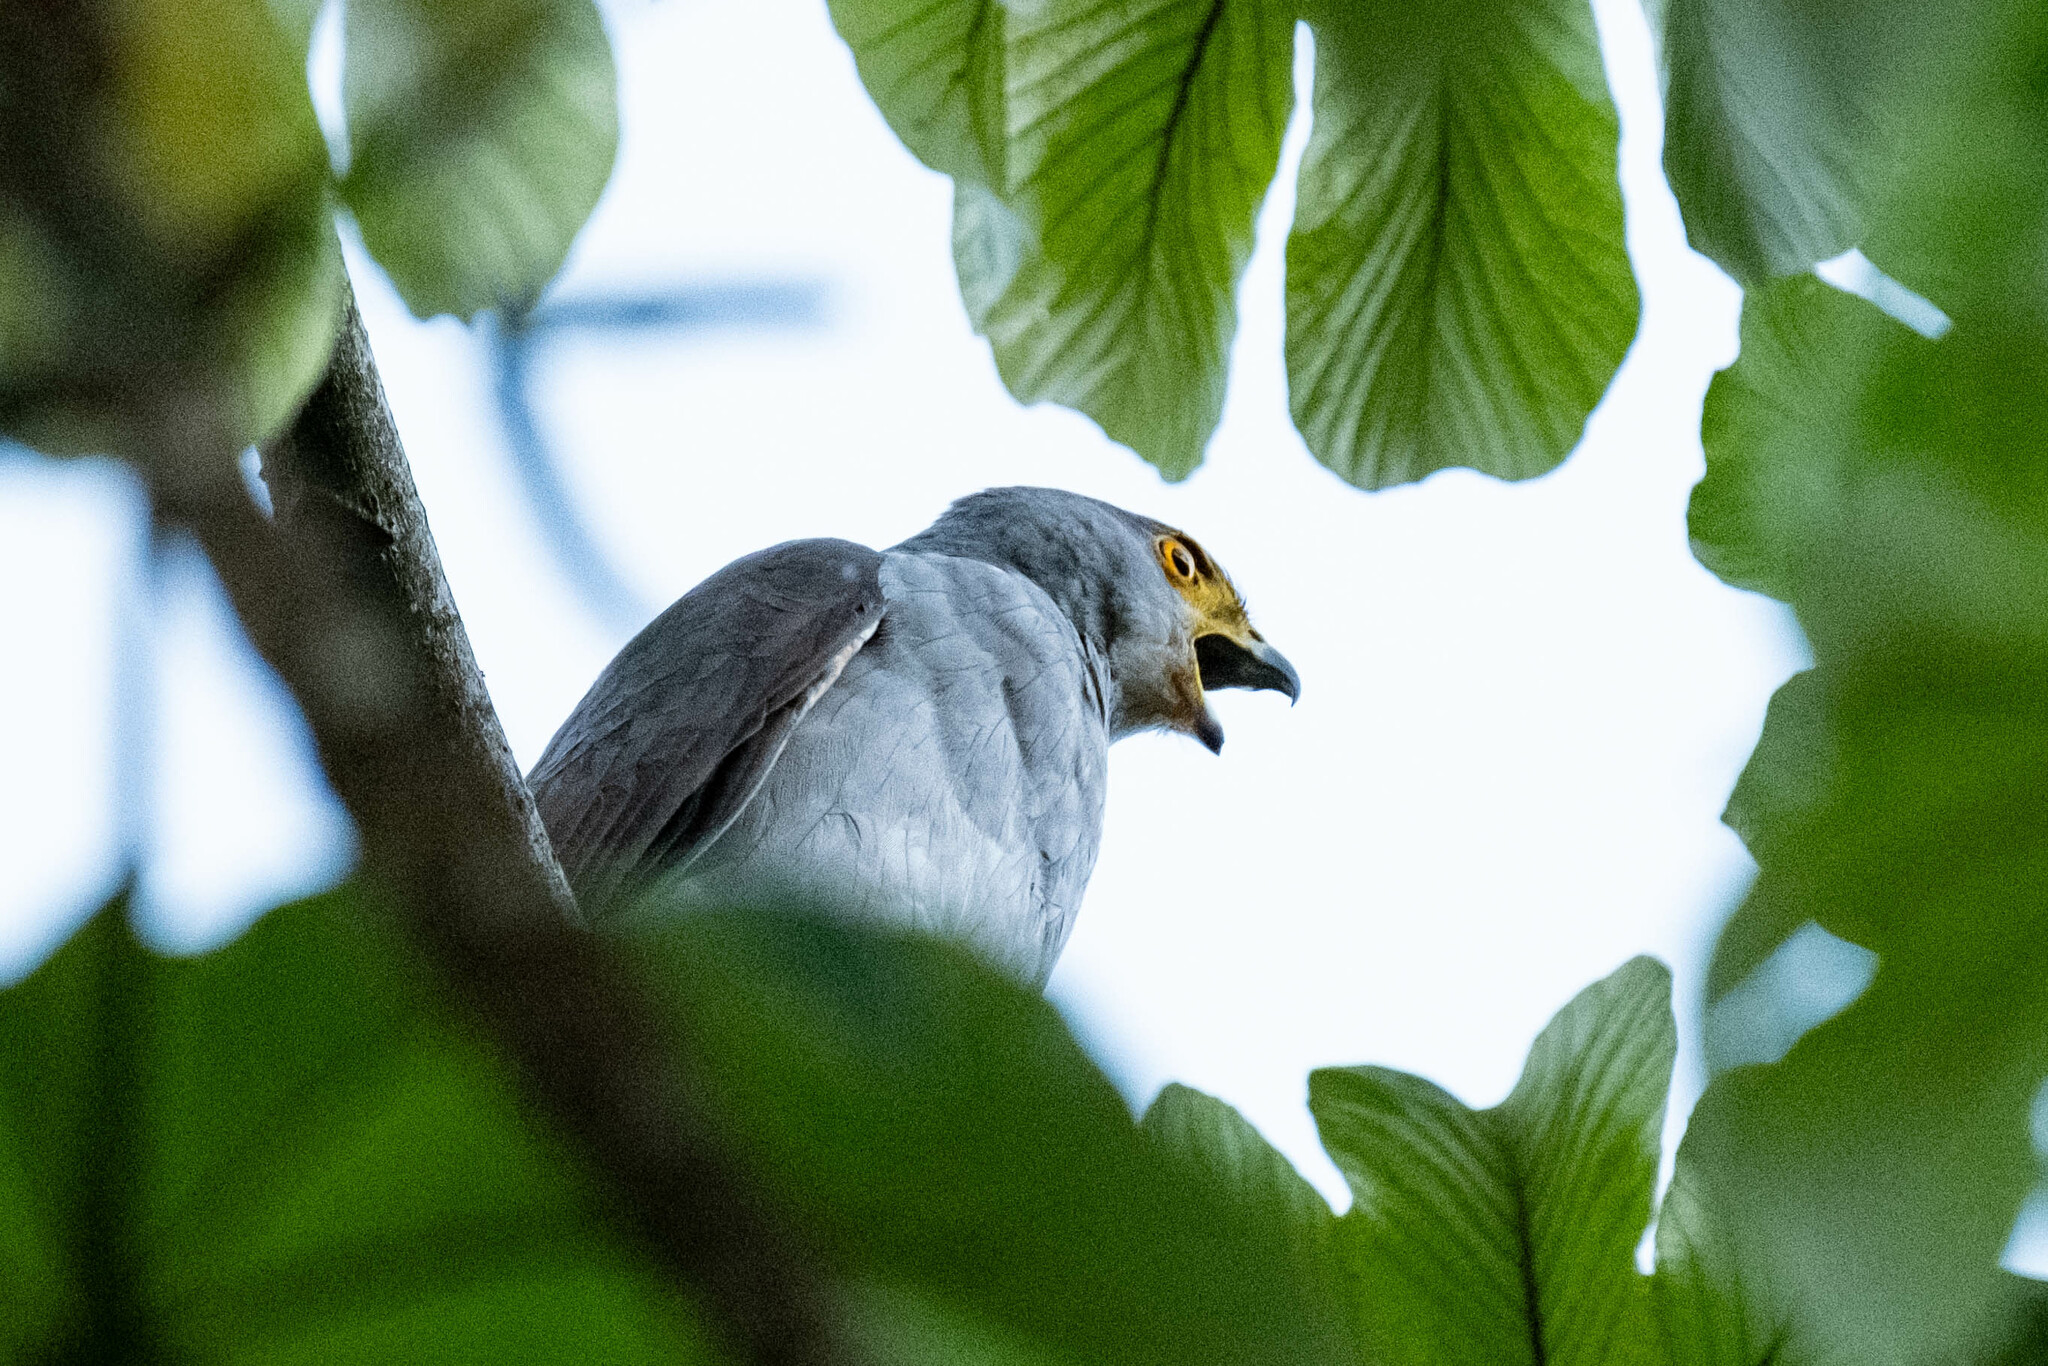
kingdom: Animalia
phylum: Chordata
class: Aves
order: Accipitriformes
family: Accipitridae
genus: Accipiter
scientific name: Accipiter bicolor
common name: Bicolored hawk
